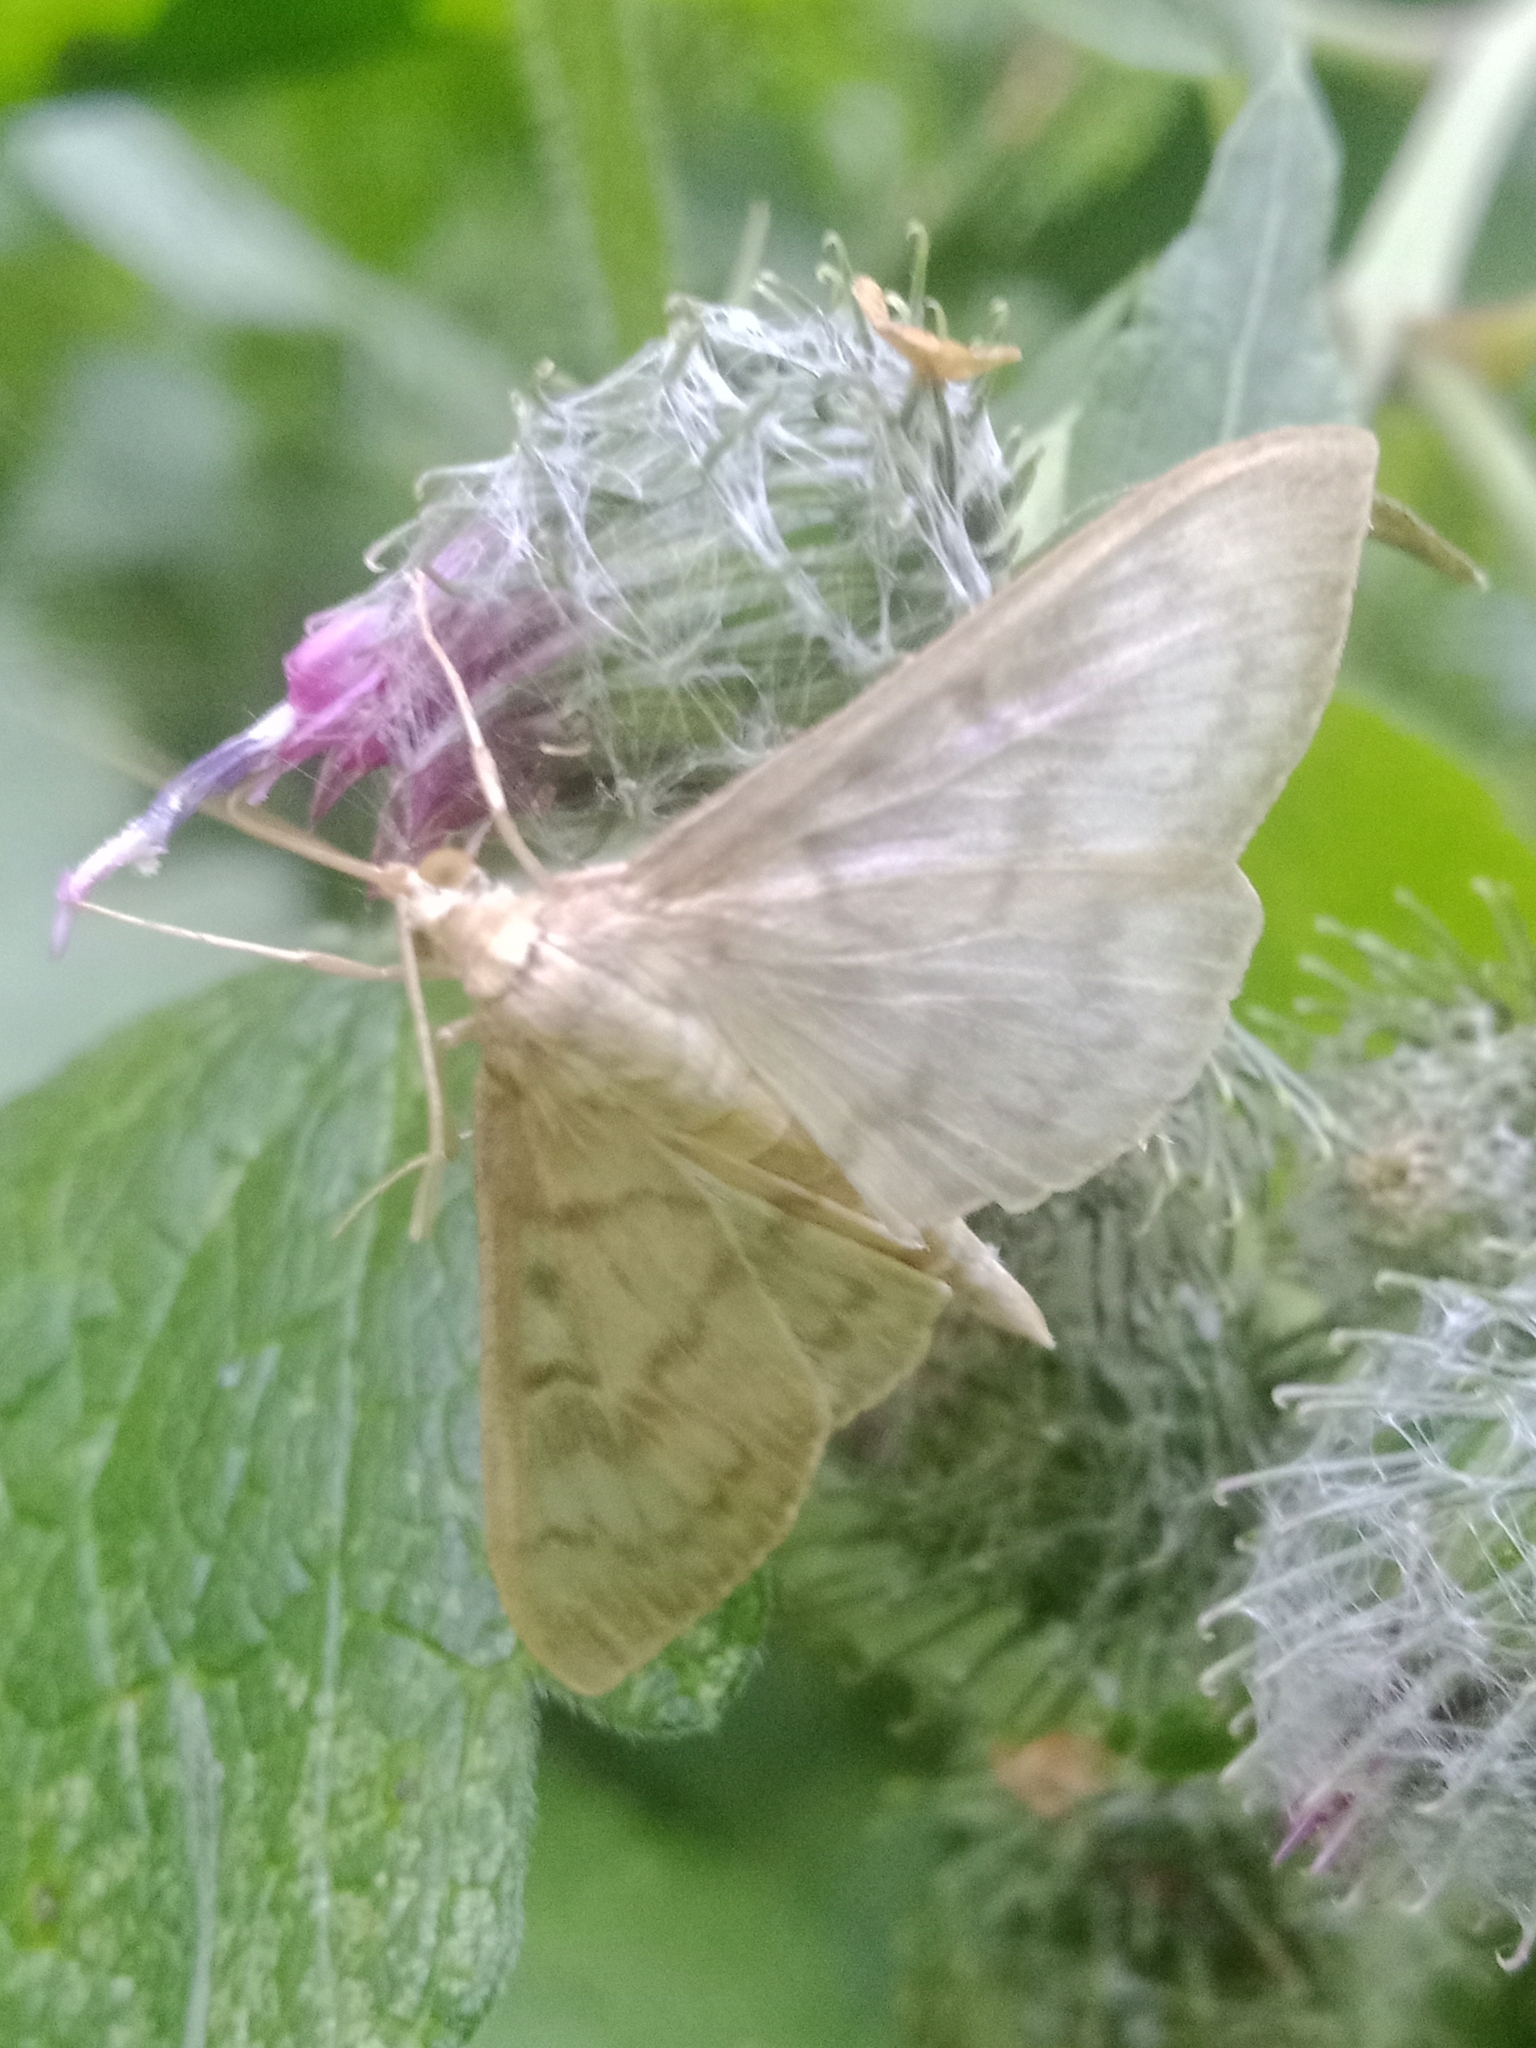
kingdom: Animalia
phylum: Arthropoda
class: Insecta
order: Lepidoptera
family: Crambidae
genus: Patania
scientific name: Patania ruralis
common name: Mother of pearl
